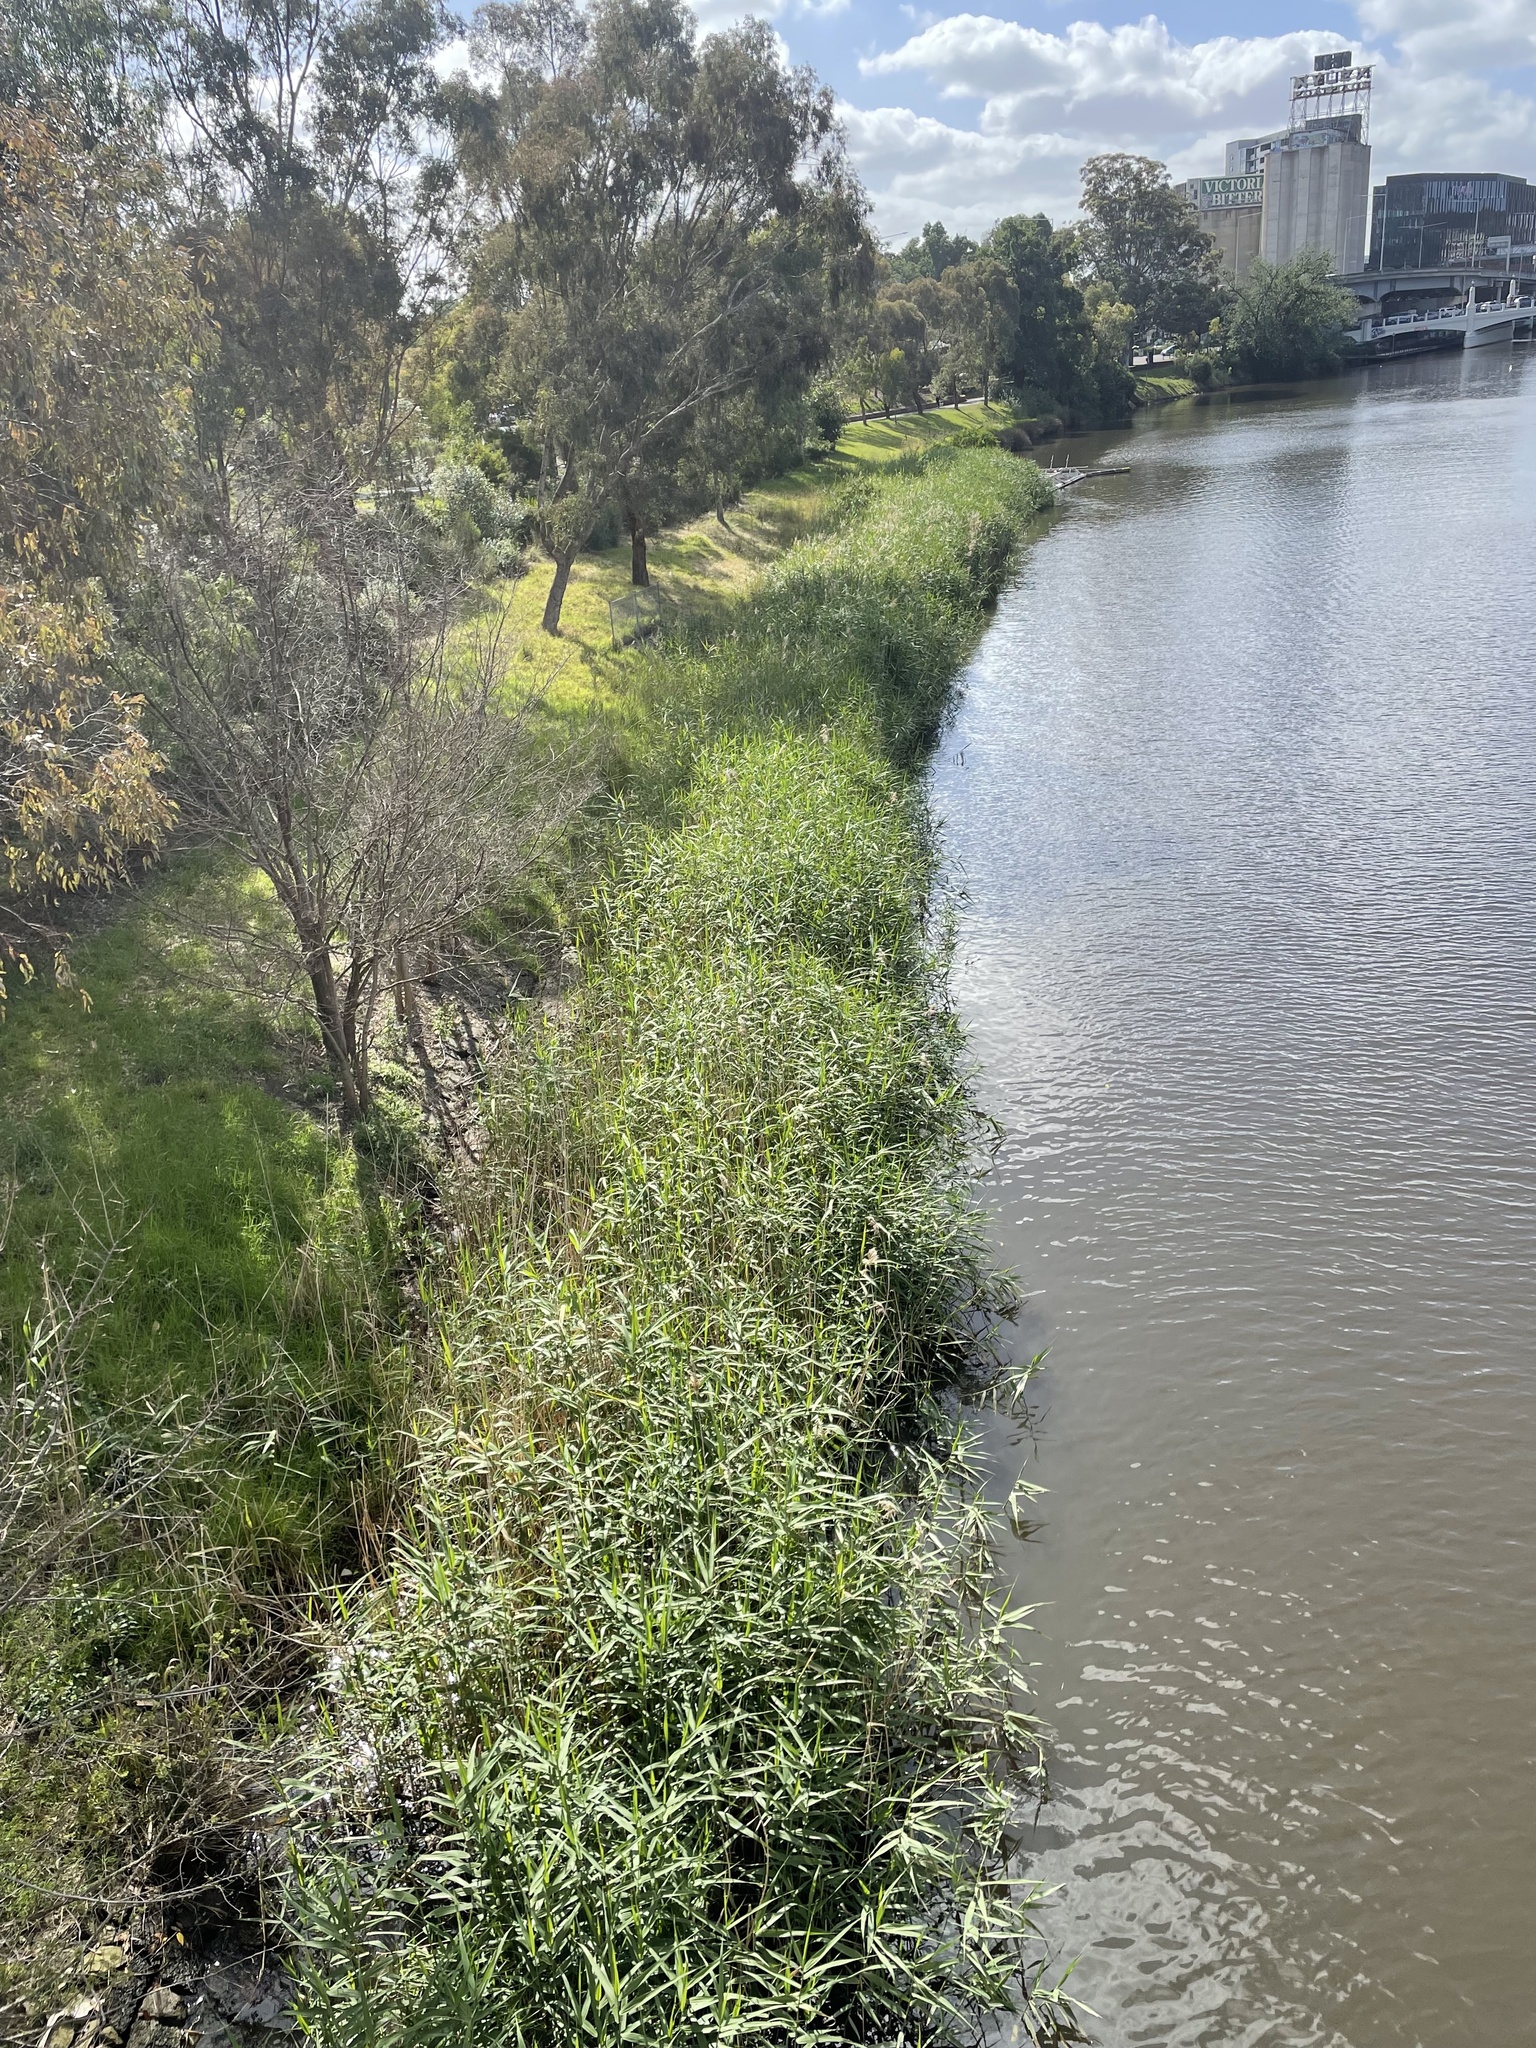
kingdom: Plantae
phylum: Tracheophyta
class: Liliopsida
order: Poales
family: Poaceae
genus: Phragmites
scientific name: Phragmites australis
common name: Common reed
